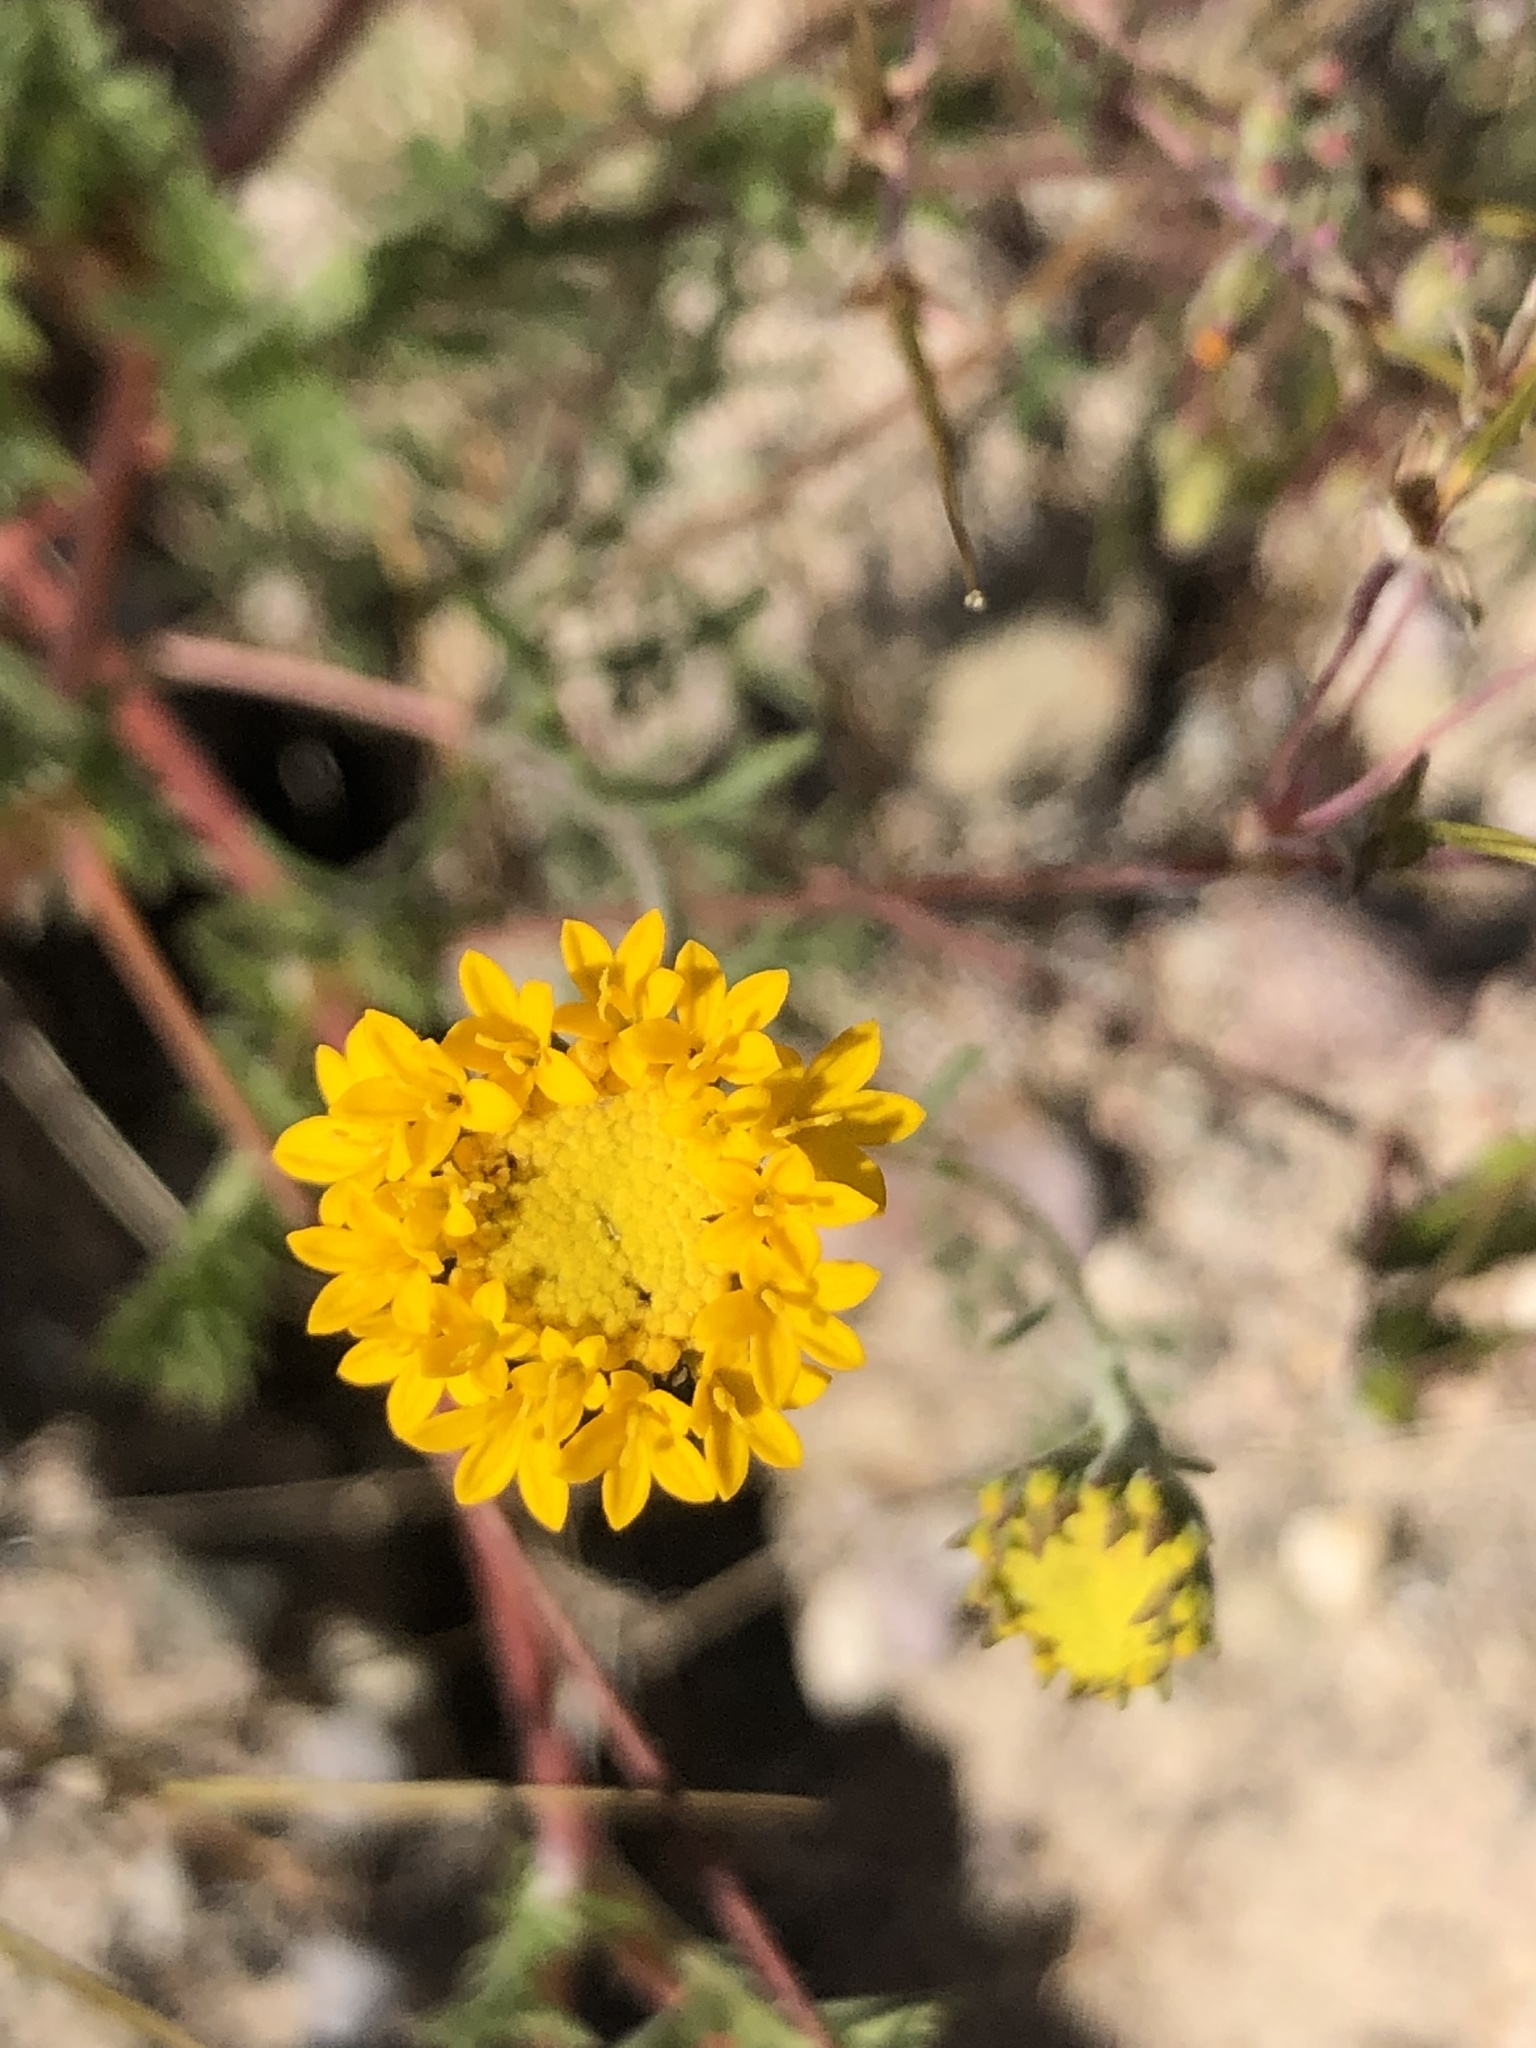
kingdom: Plantae
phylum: Tracheophyta
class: Magnoliopsida
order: Asterales
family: Asteraceae
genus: Chaenactis
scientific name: Chaenactis glabriuscula
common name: Yellow pincushion
